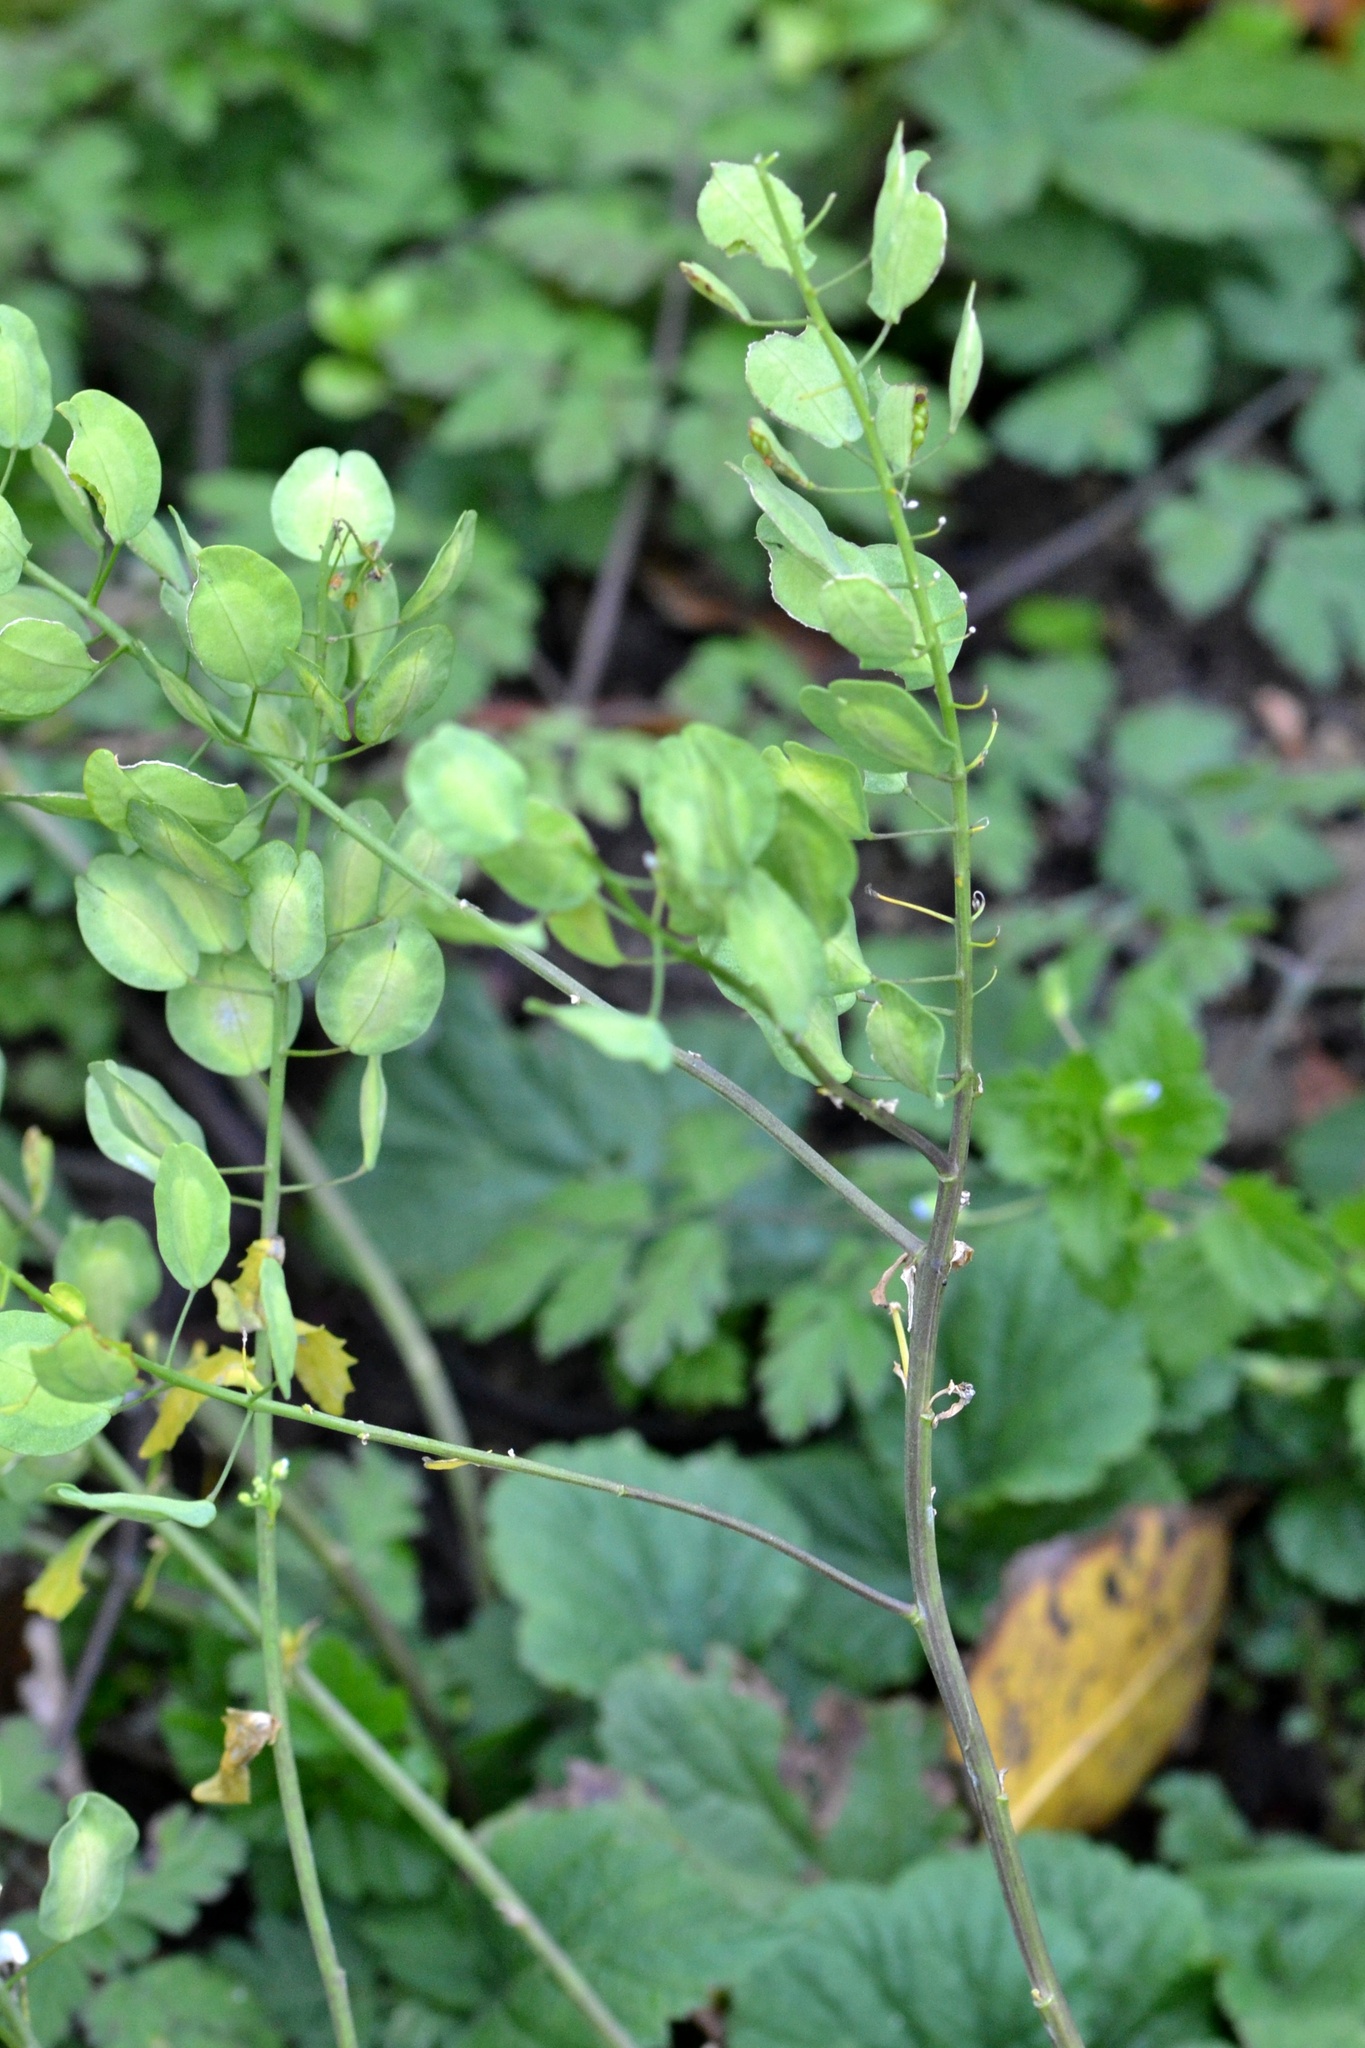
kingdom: Plantae
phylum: Tracheophyta
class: Magnoliopsida
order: Brassicales
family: Brassicaceae
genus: Thlaspi
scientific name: Thlaspi arvense
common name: Field pennycress
